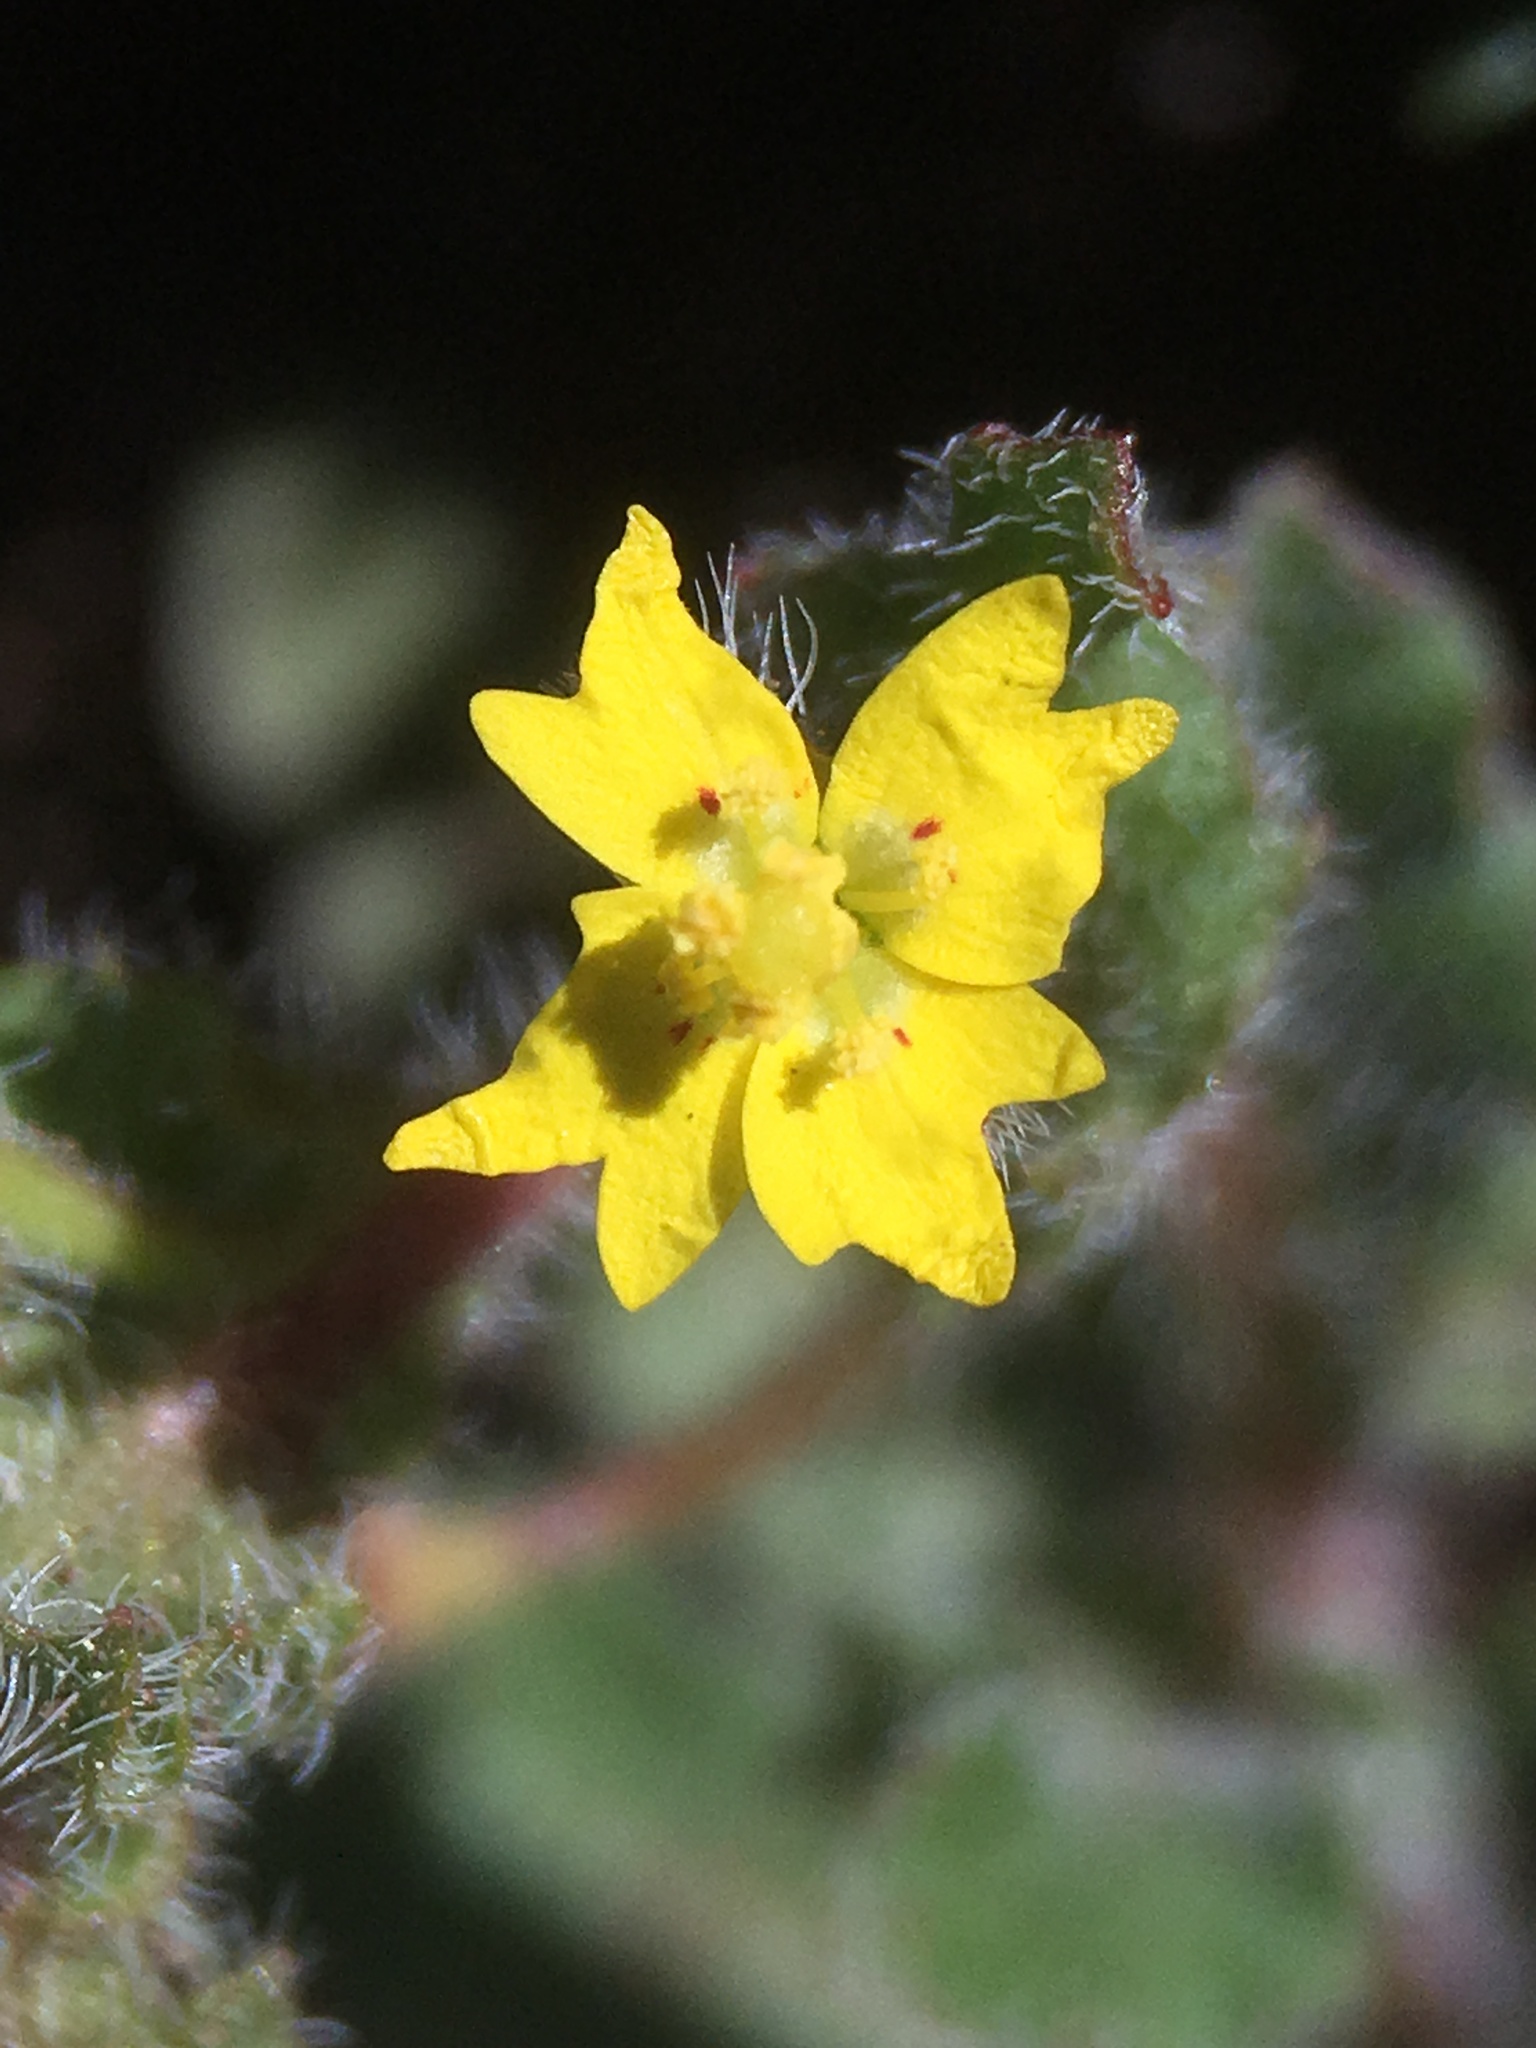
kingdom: Plantae
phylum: Tracheophyta
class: Magnoliopsida
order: Myrtales
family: Onagraceae
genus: Camissoniopsis
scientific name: Camissoniopsis hirtella
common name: Santa cruz island suncup
